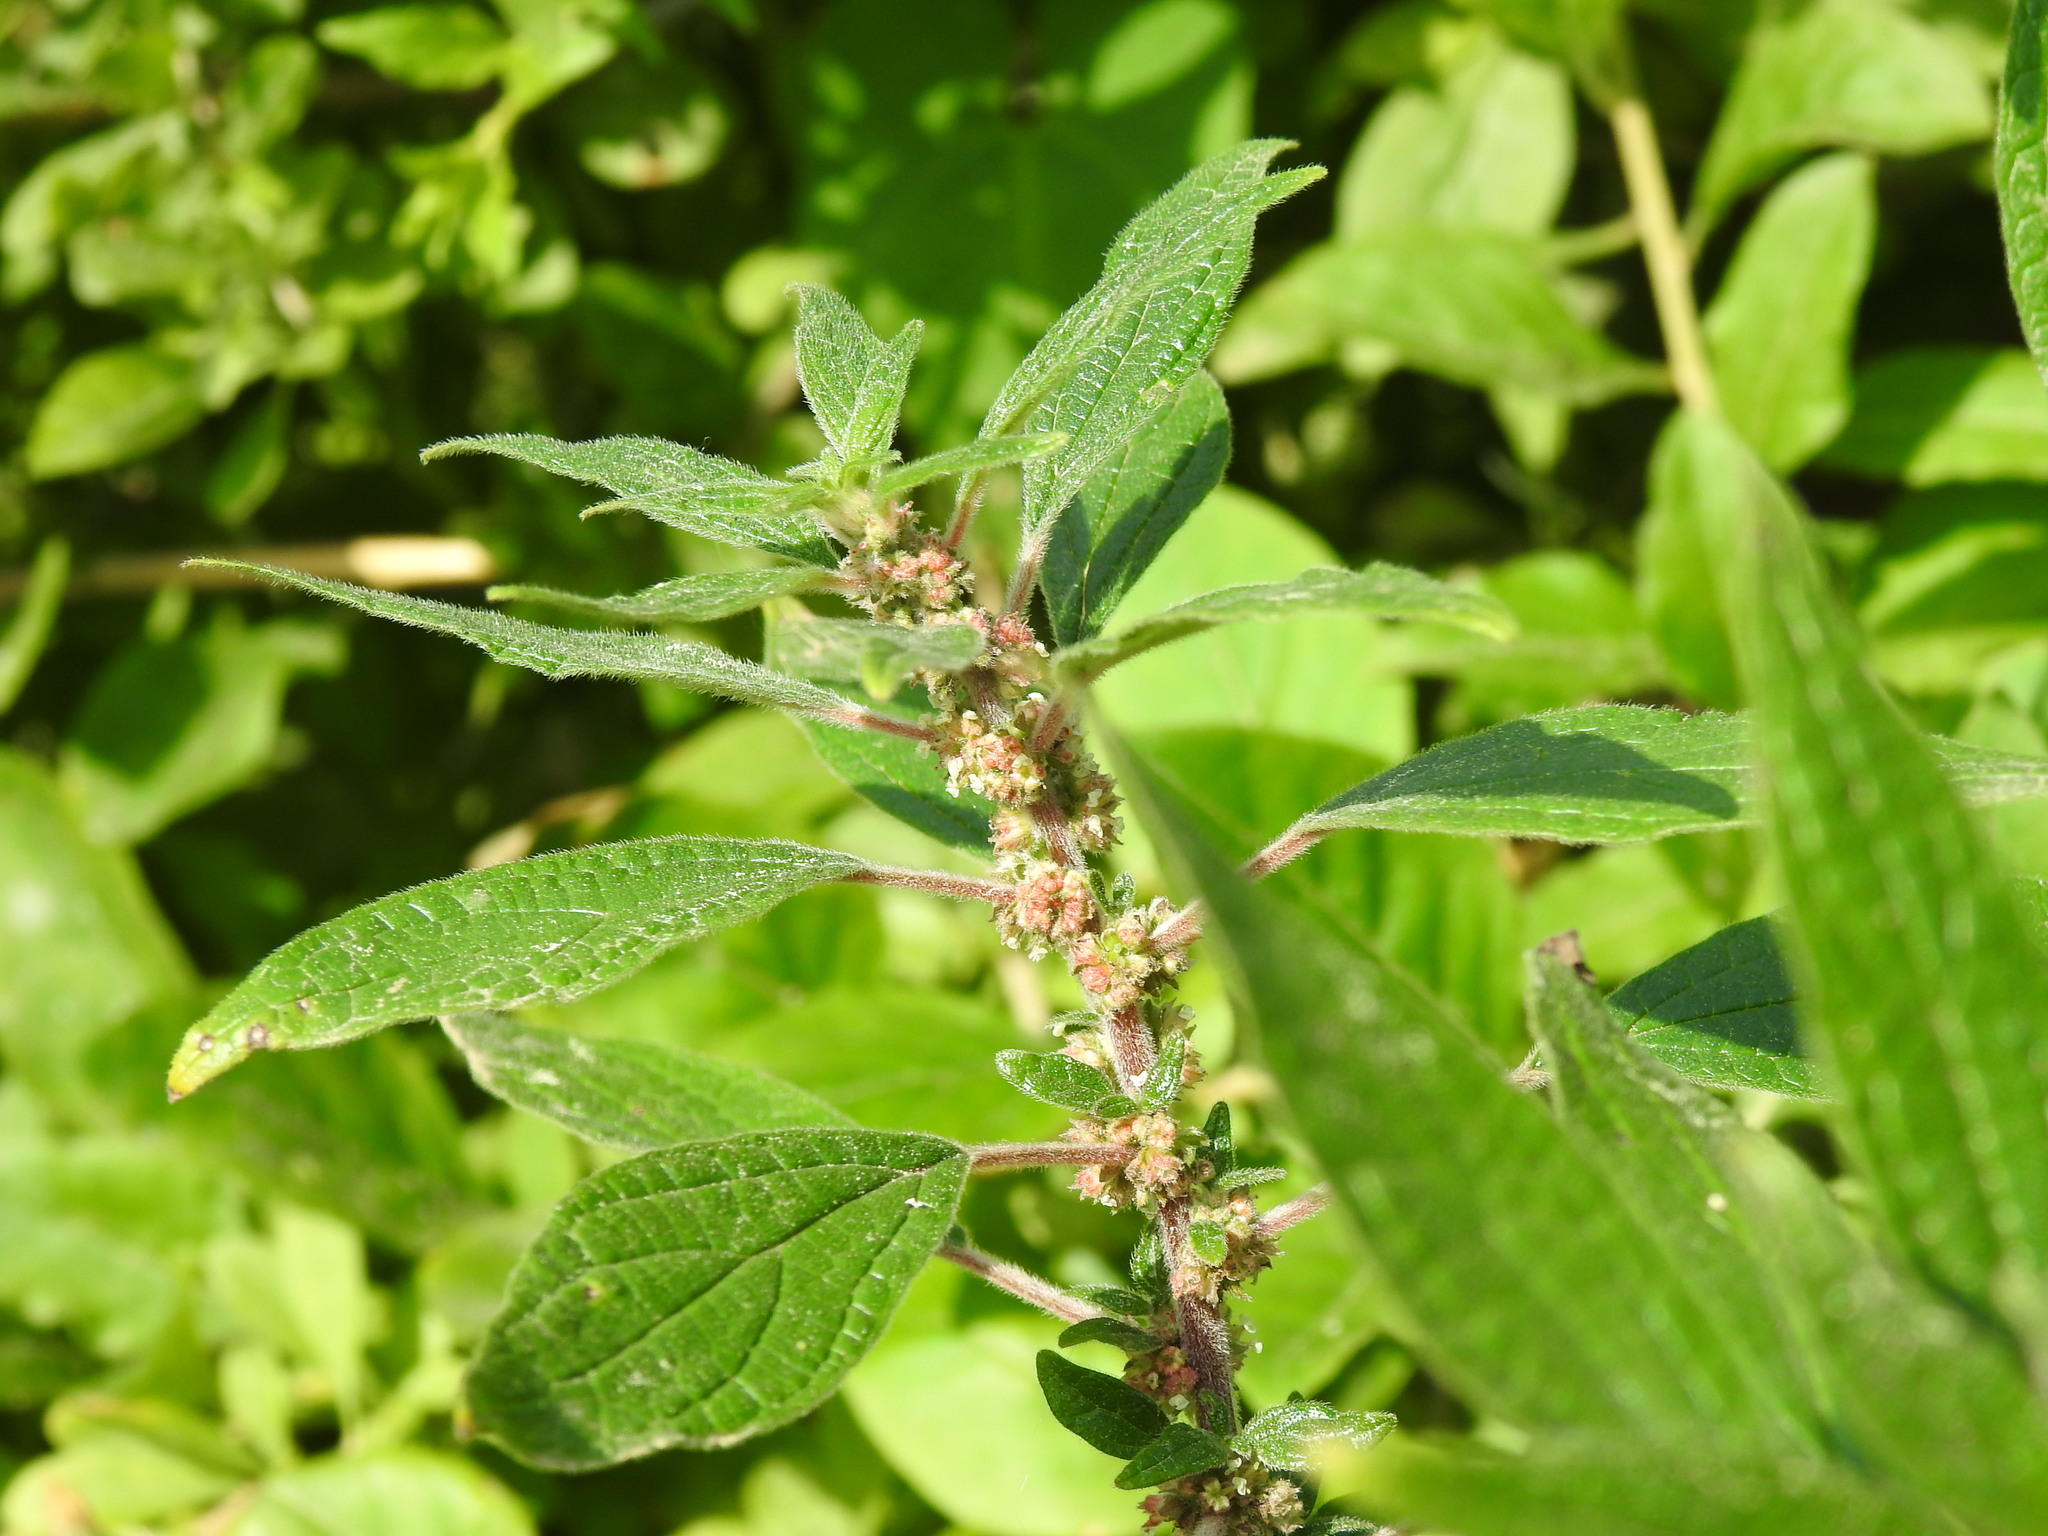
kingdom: Plantae
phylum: Tracheophyta
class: Magnoliopsida
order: Rosales
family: Urticaceae
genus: Parietaria
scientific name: Parietaria judaica
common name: Pellitory-of-the-wall
